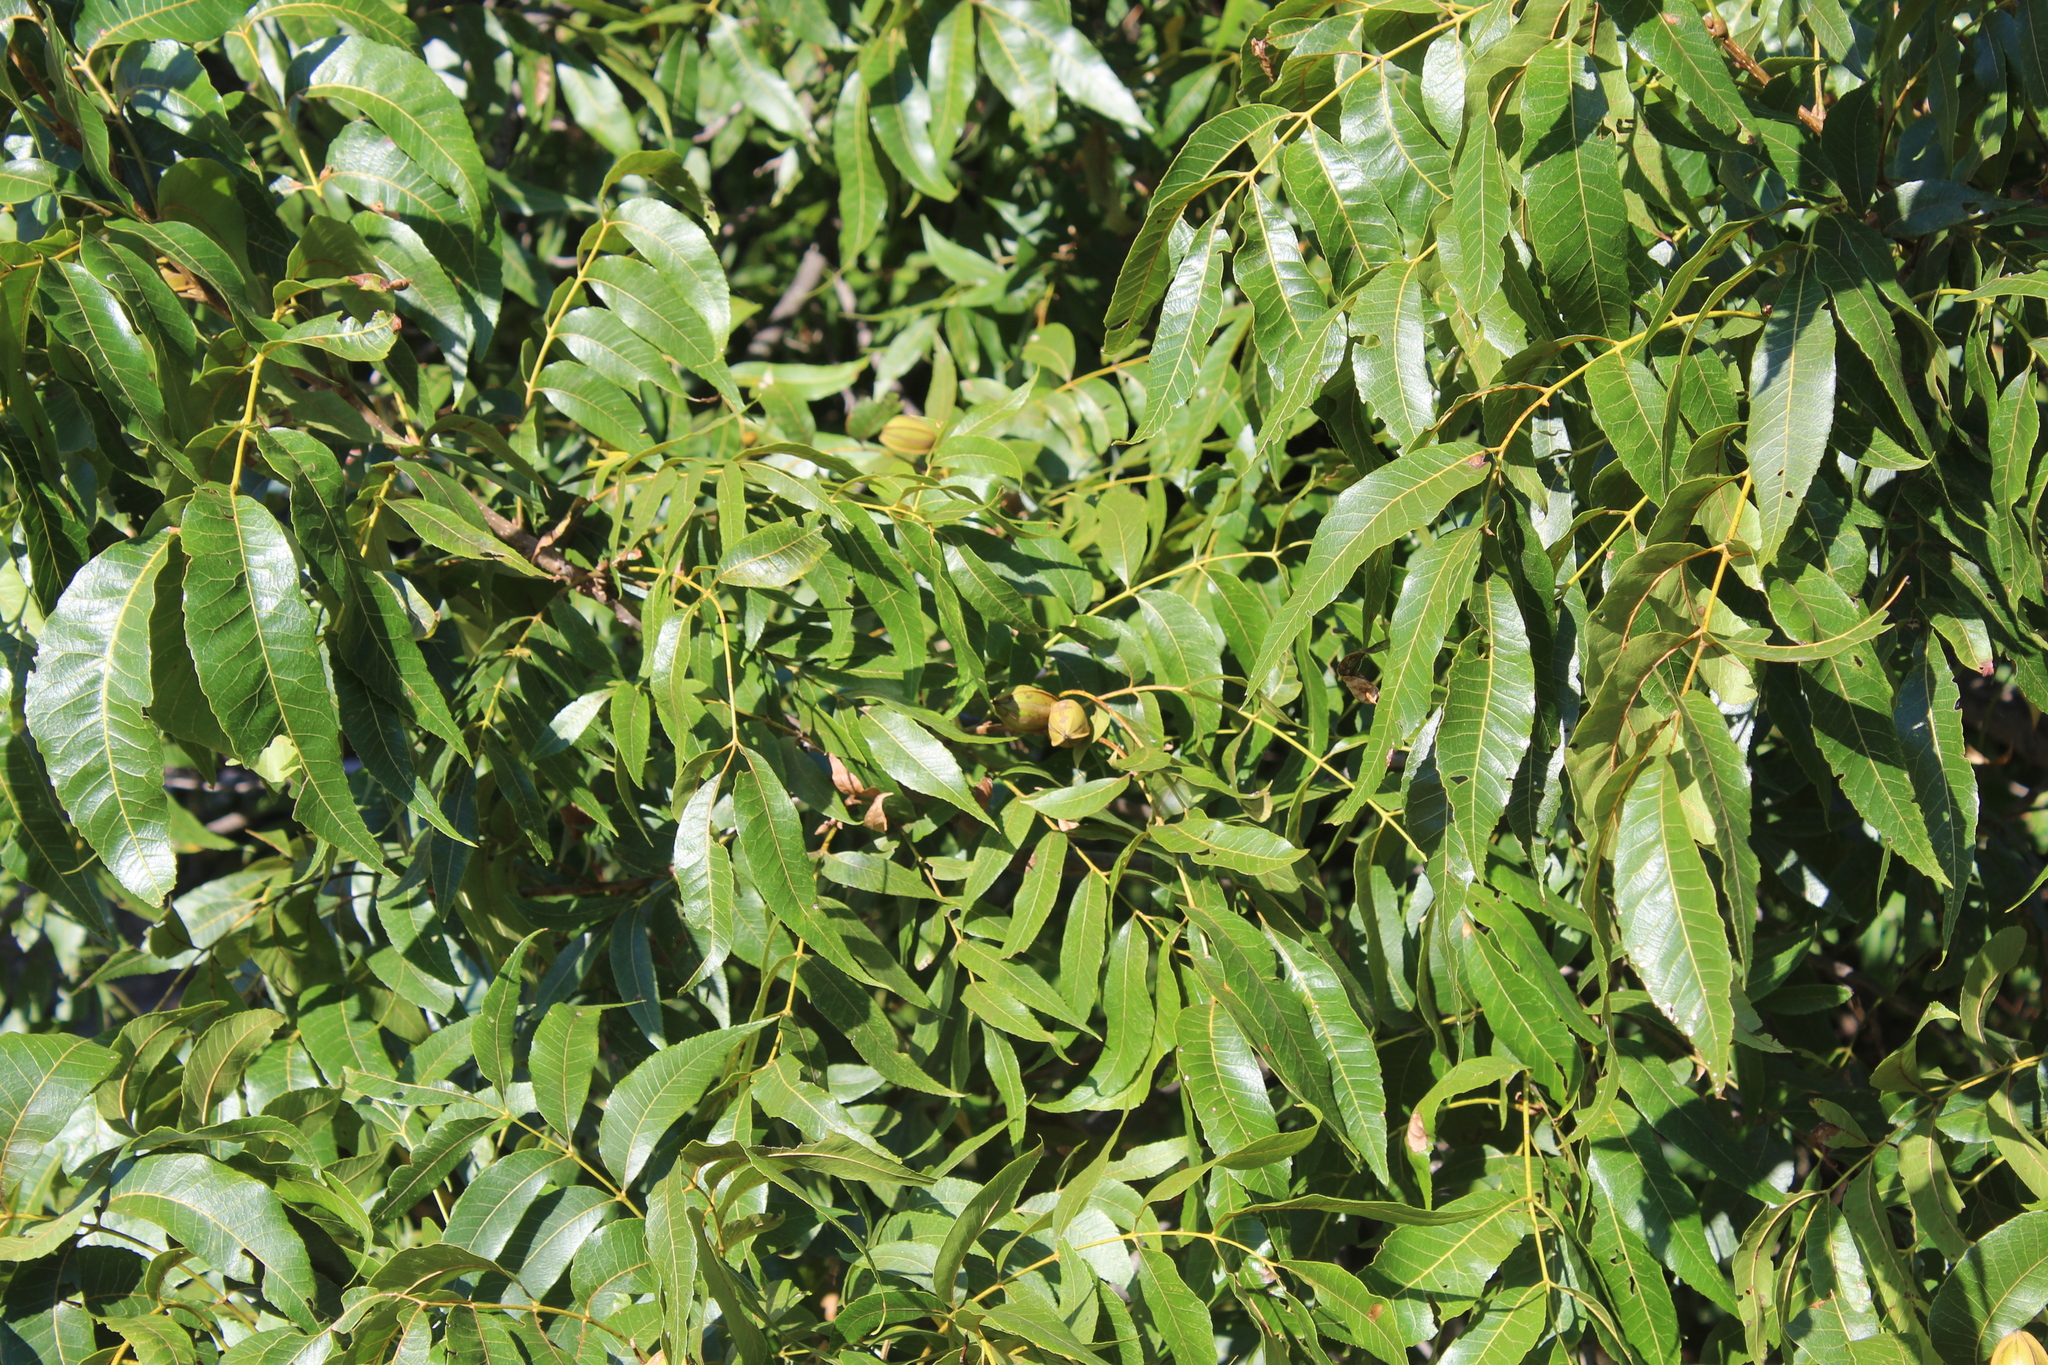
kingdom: Plantae
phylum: Tracheophyta
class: Magnoliopsida
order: Fagales
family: Juglandaceae
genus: Carya
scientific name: Carya illinoinensis
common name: Pecan
